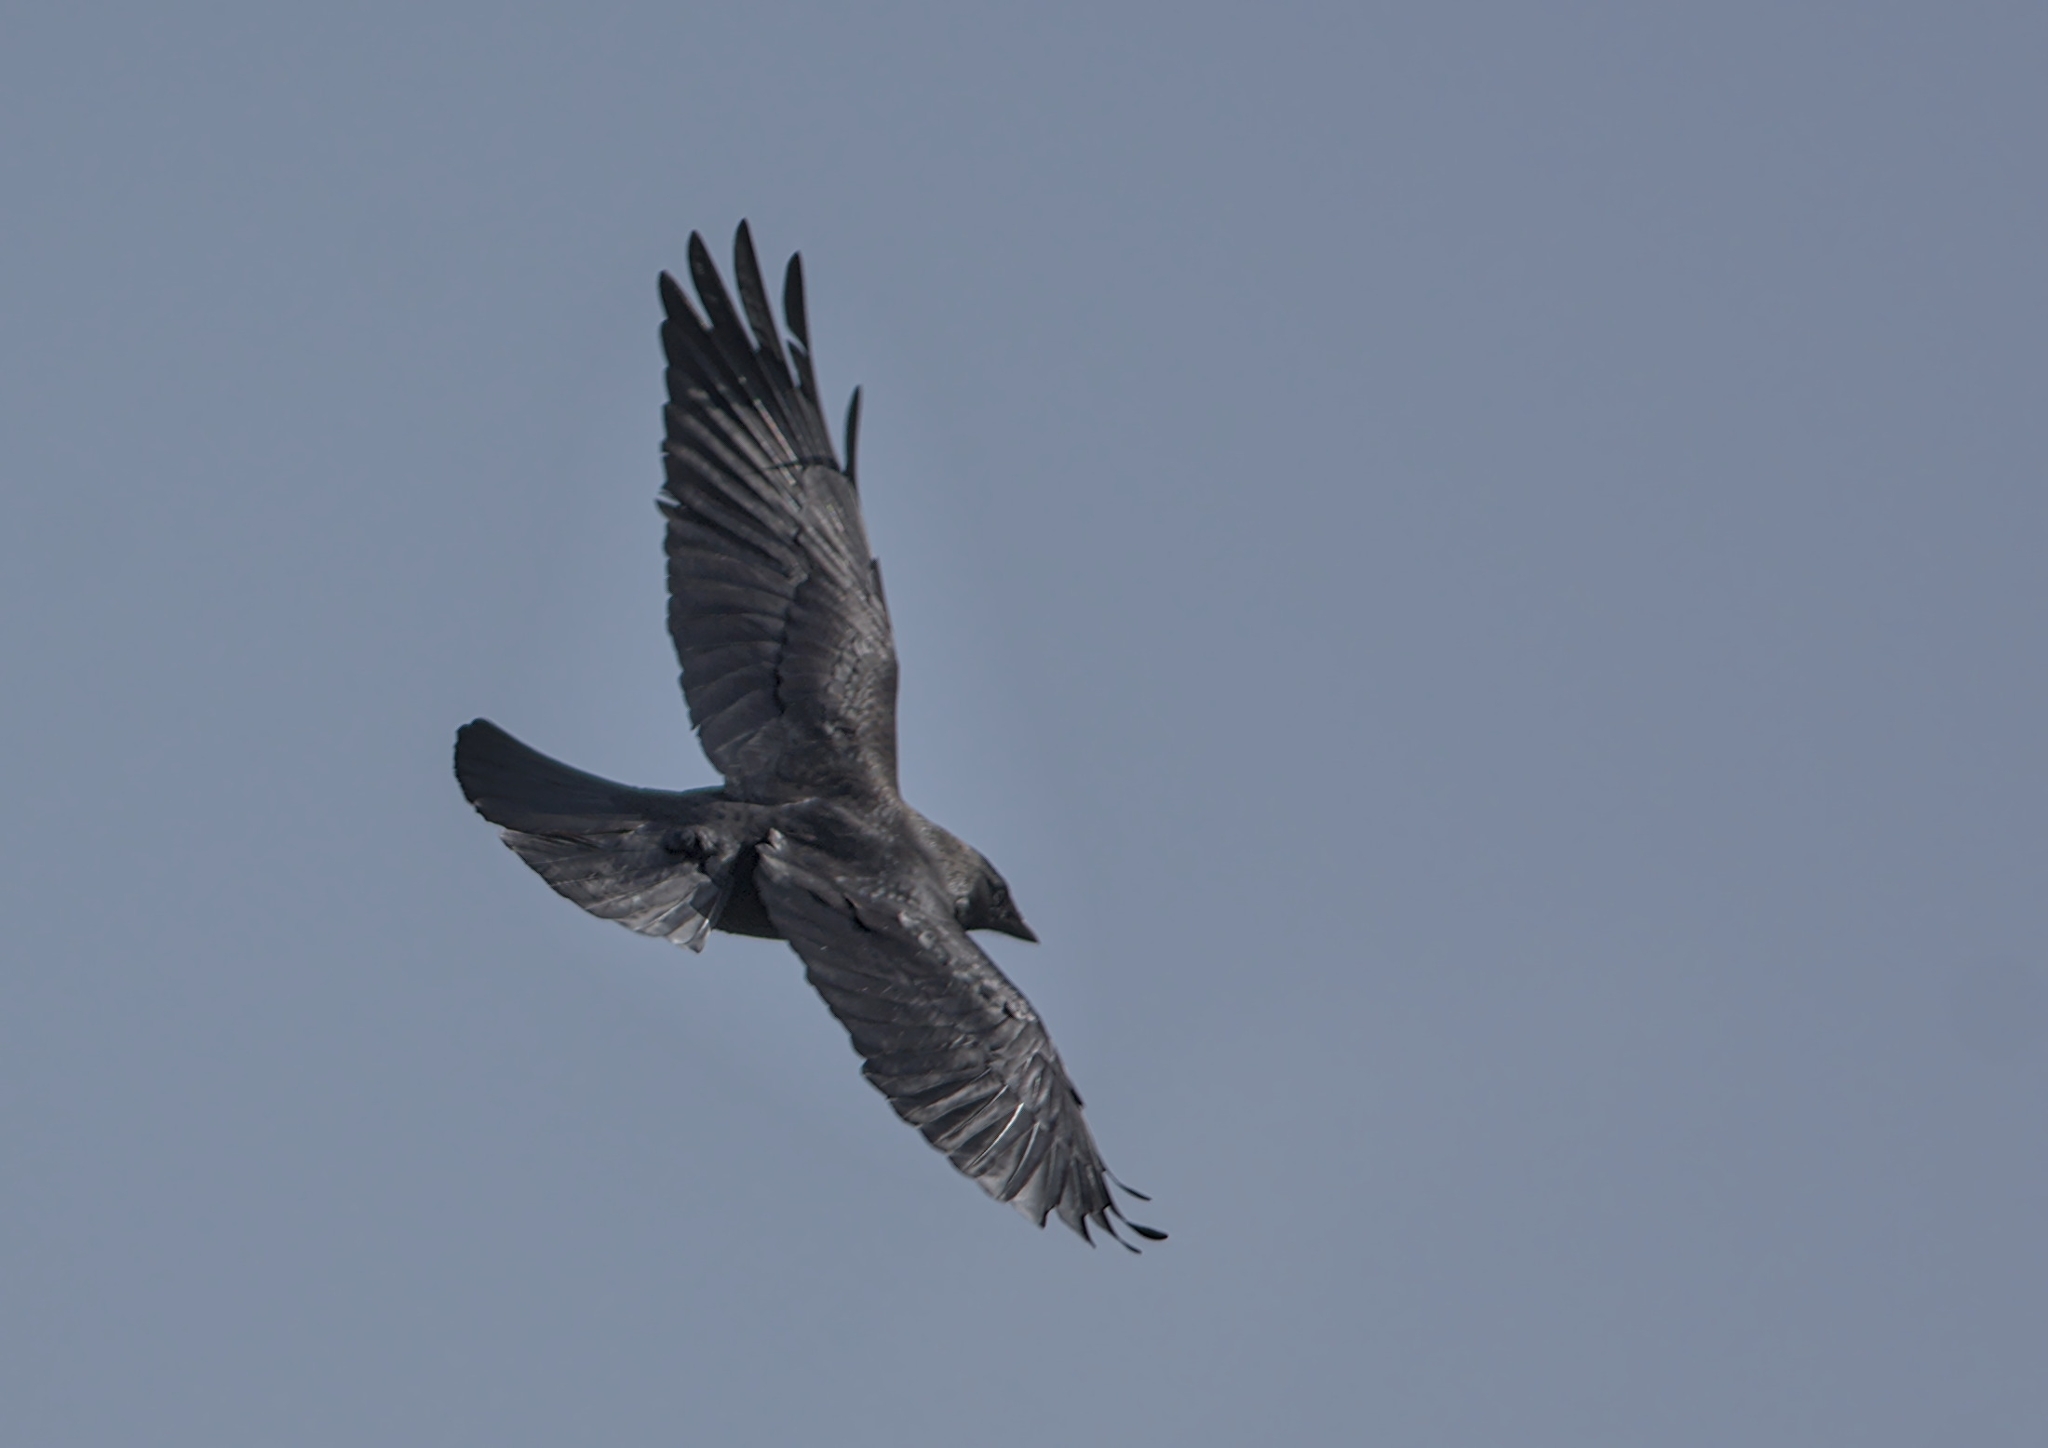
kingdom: Animalia
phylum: Chordata
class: Aves
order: Passeriformes
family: Corvidae
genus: Coloeus
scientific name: Coloeus monedula
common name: Western jackdaw
